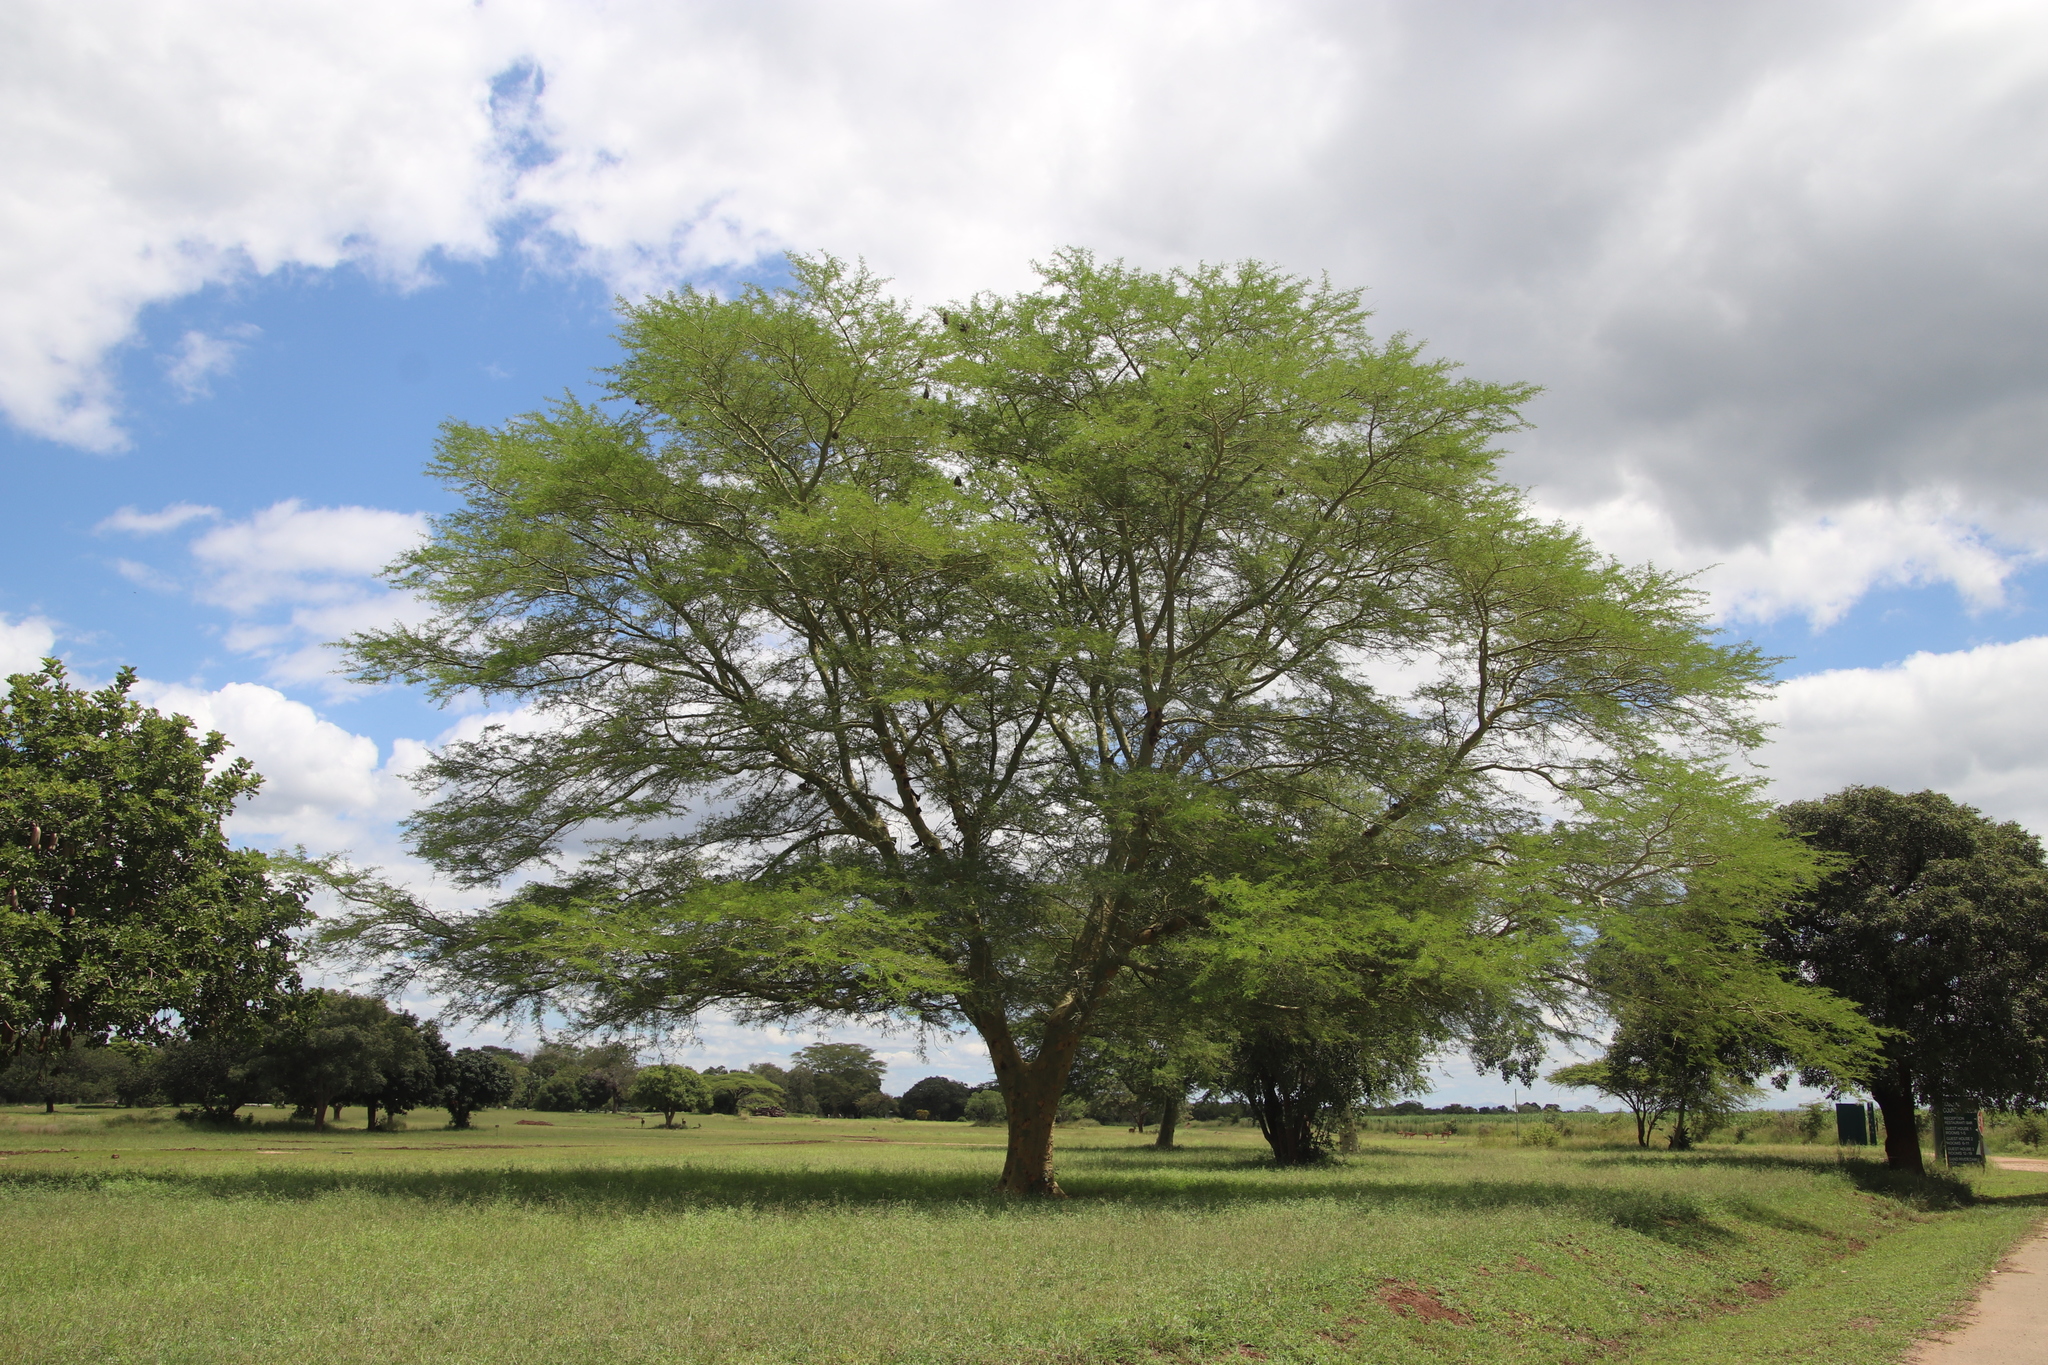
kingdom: Plantae
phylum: Tracheophyta
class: Magnoliopsida
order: Fabales
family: Fabaceae
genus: Vachellia
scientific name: Vachellia xanthophloea
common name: Fever tree
